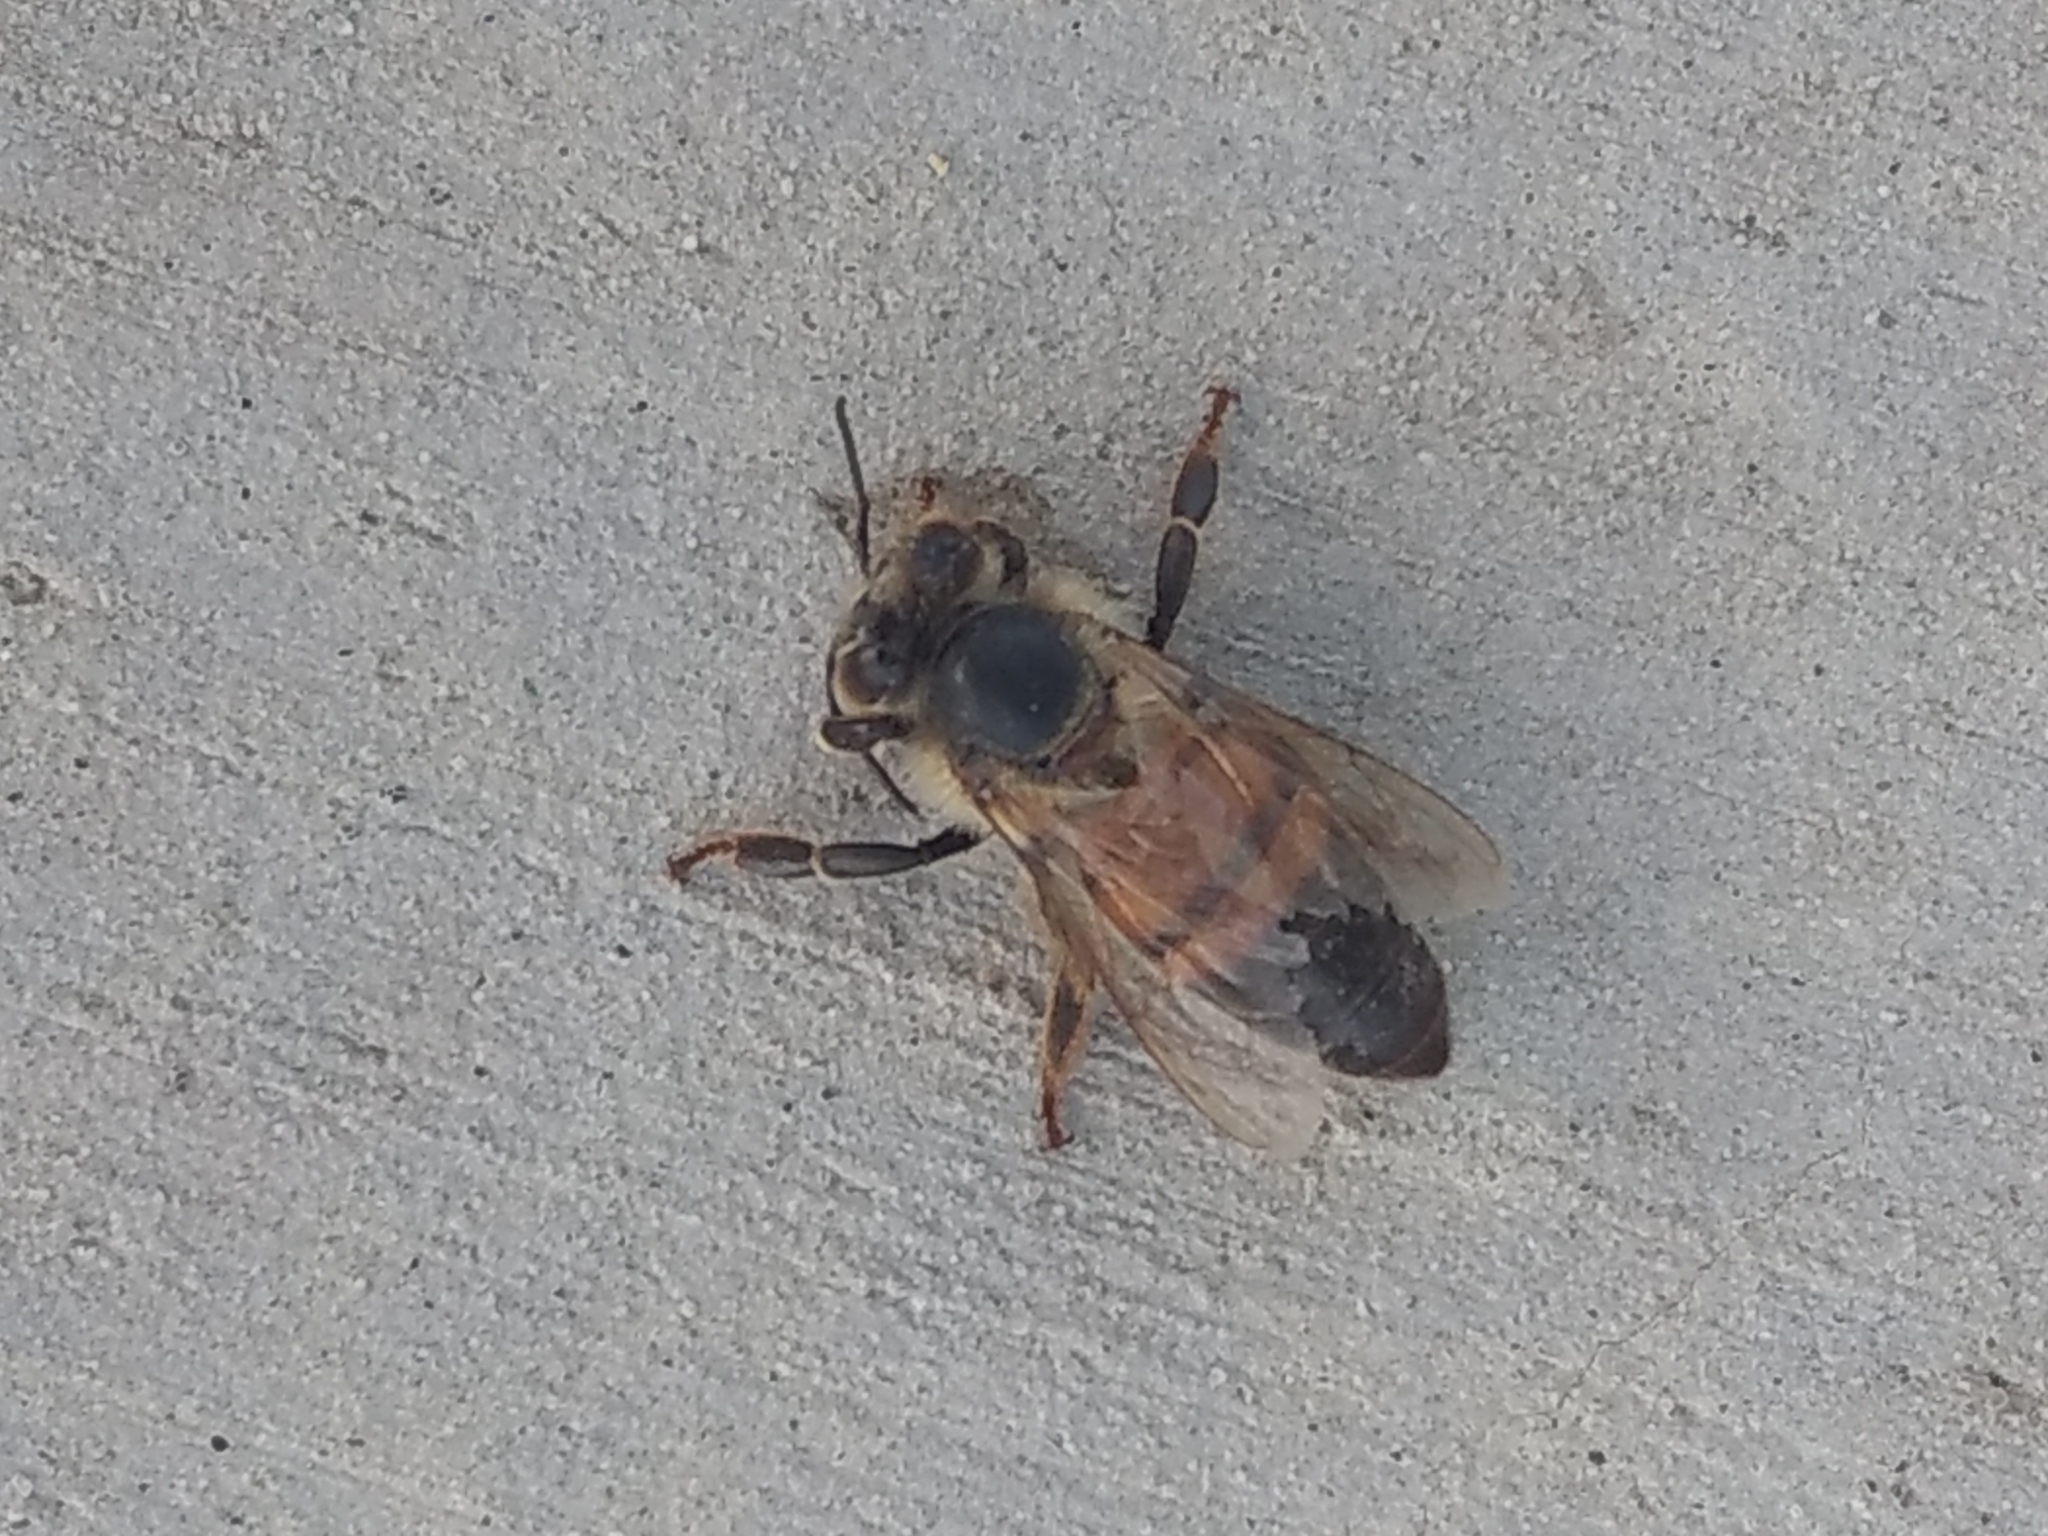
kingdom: Animalia
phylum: Arthropoda
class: Insecta
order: Hymenoptera
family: Apidae
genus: Apis
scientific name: Apis mellifera
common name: Honey bee
